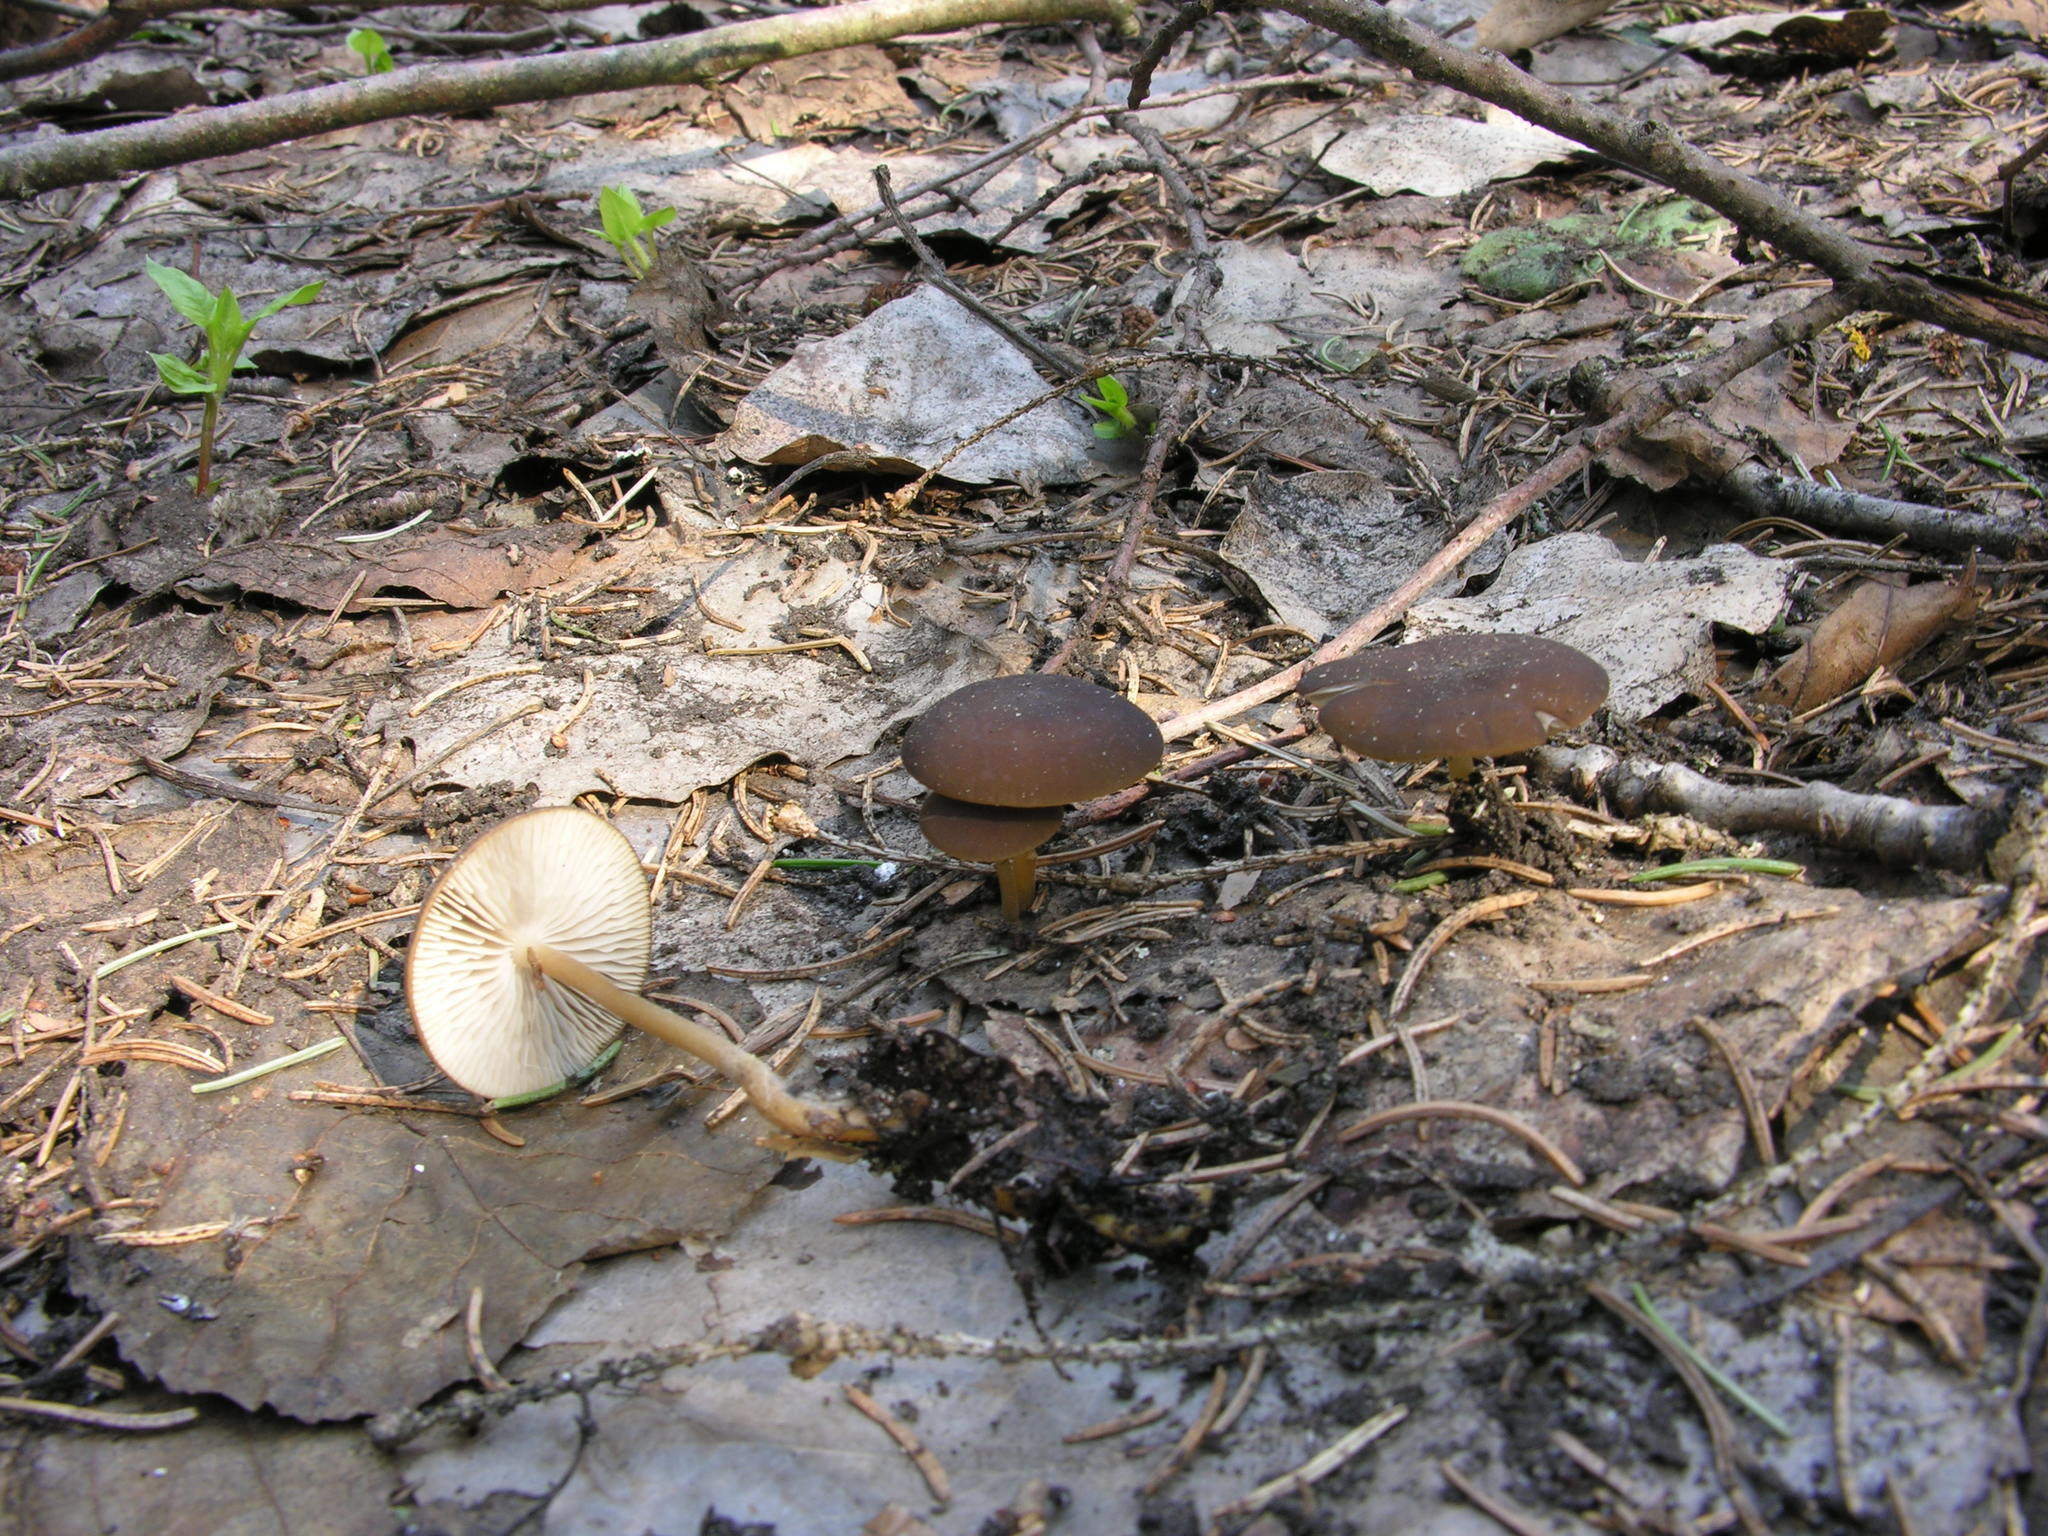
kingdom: Fungi
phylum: Basidiomycota
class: Agaricomycetes
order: Agaricales
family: Physalacriaceae
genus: Strobilurus
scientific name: Strobilurus esculentus
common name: Sprucecone cap
